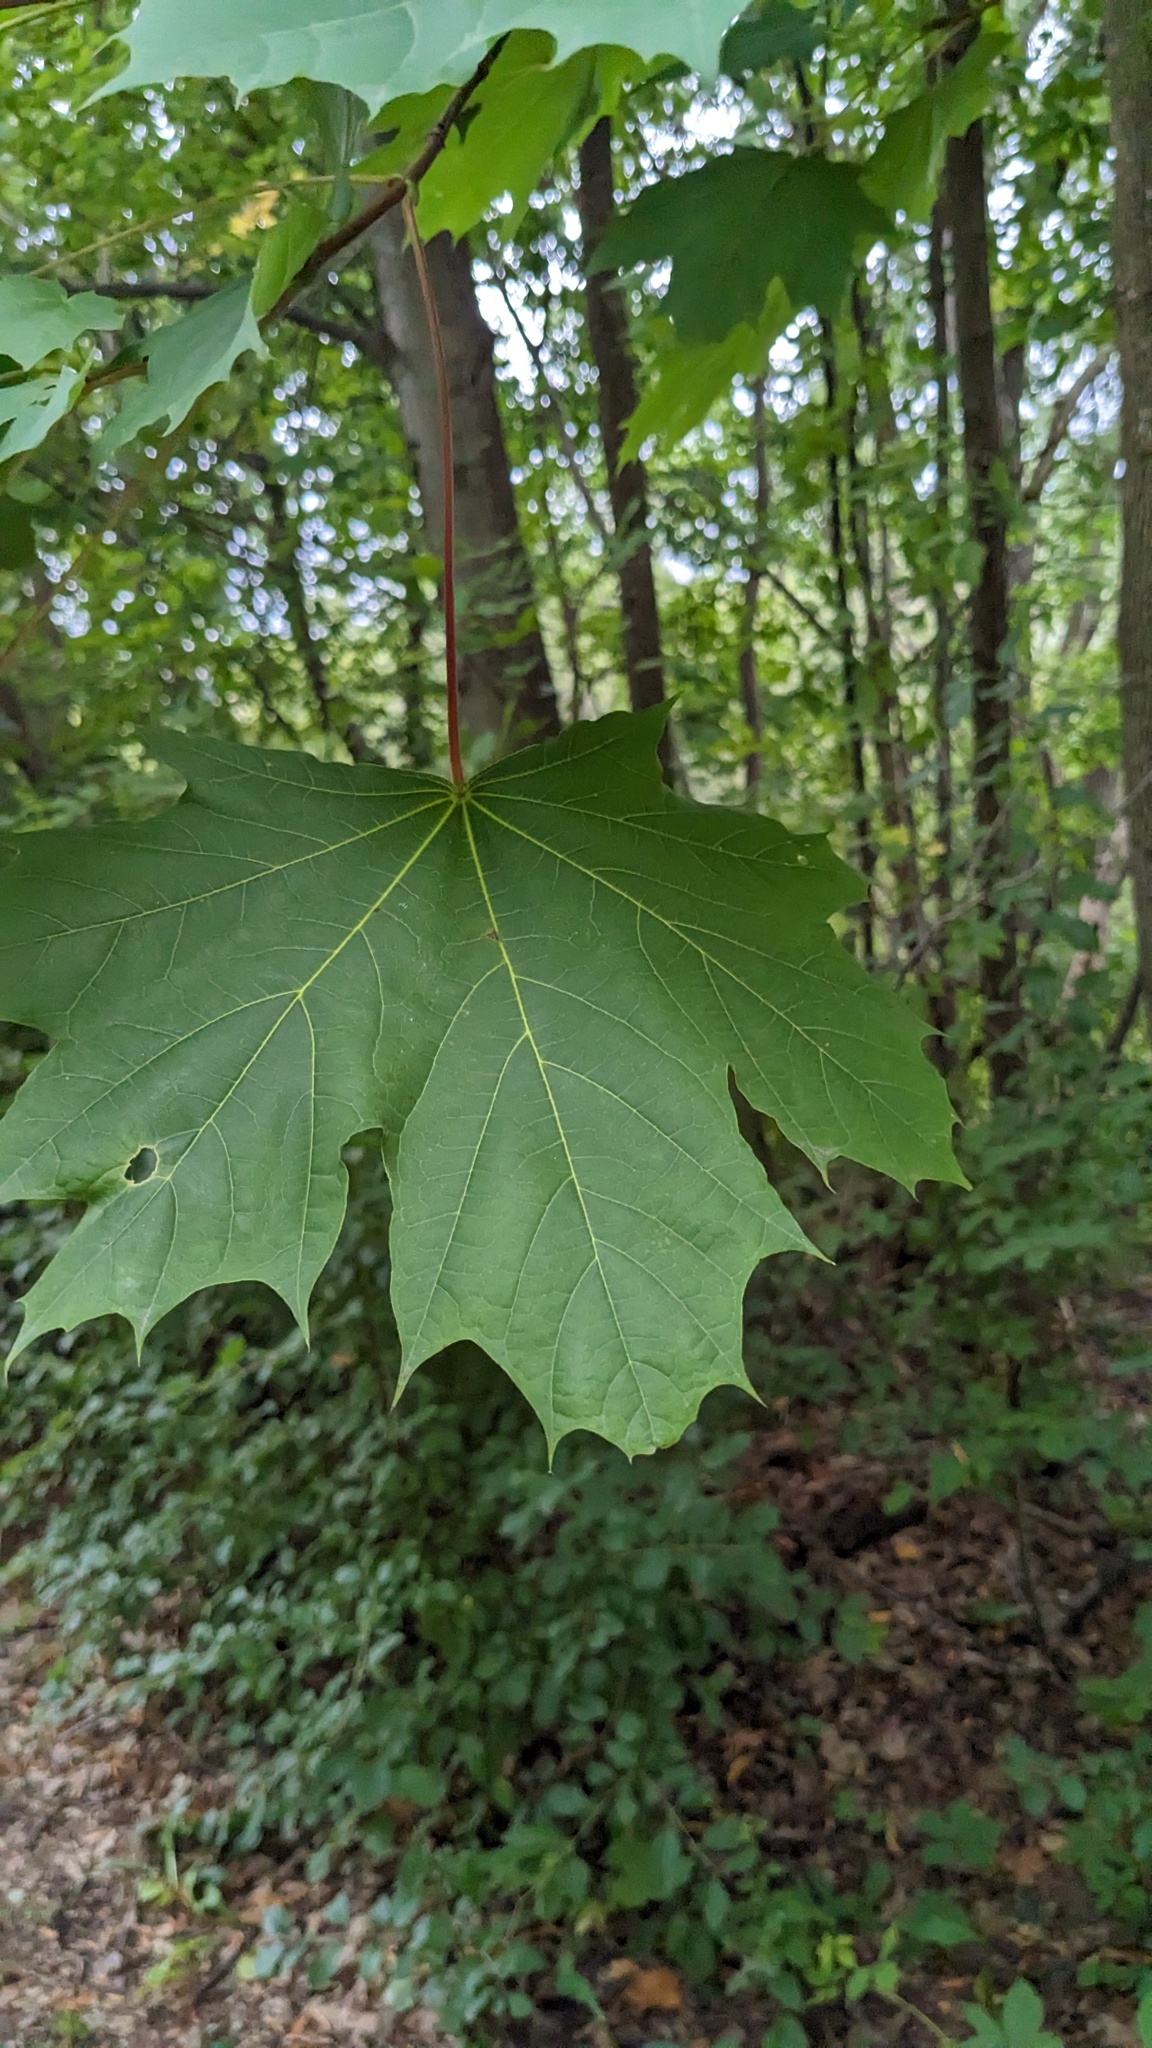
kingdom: Plantae
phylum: Tracheophyta
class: Magnoliopsida
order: Sapindales
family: Sapindaceae
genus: Acer
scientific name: Acer platanoides
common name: Norway maple
